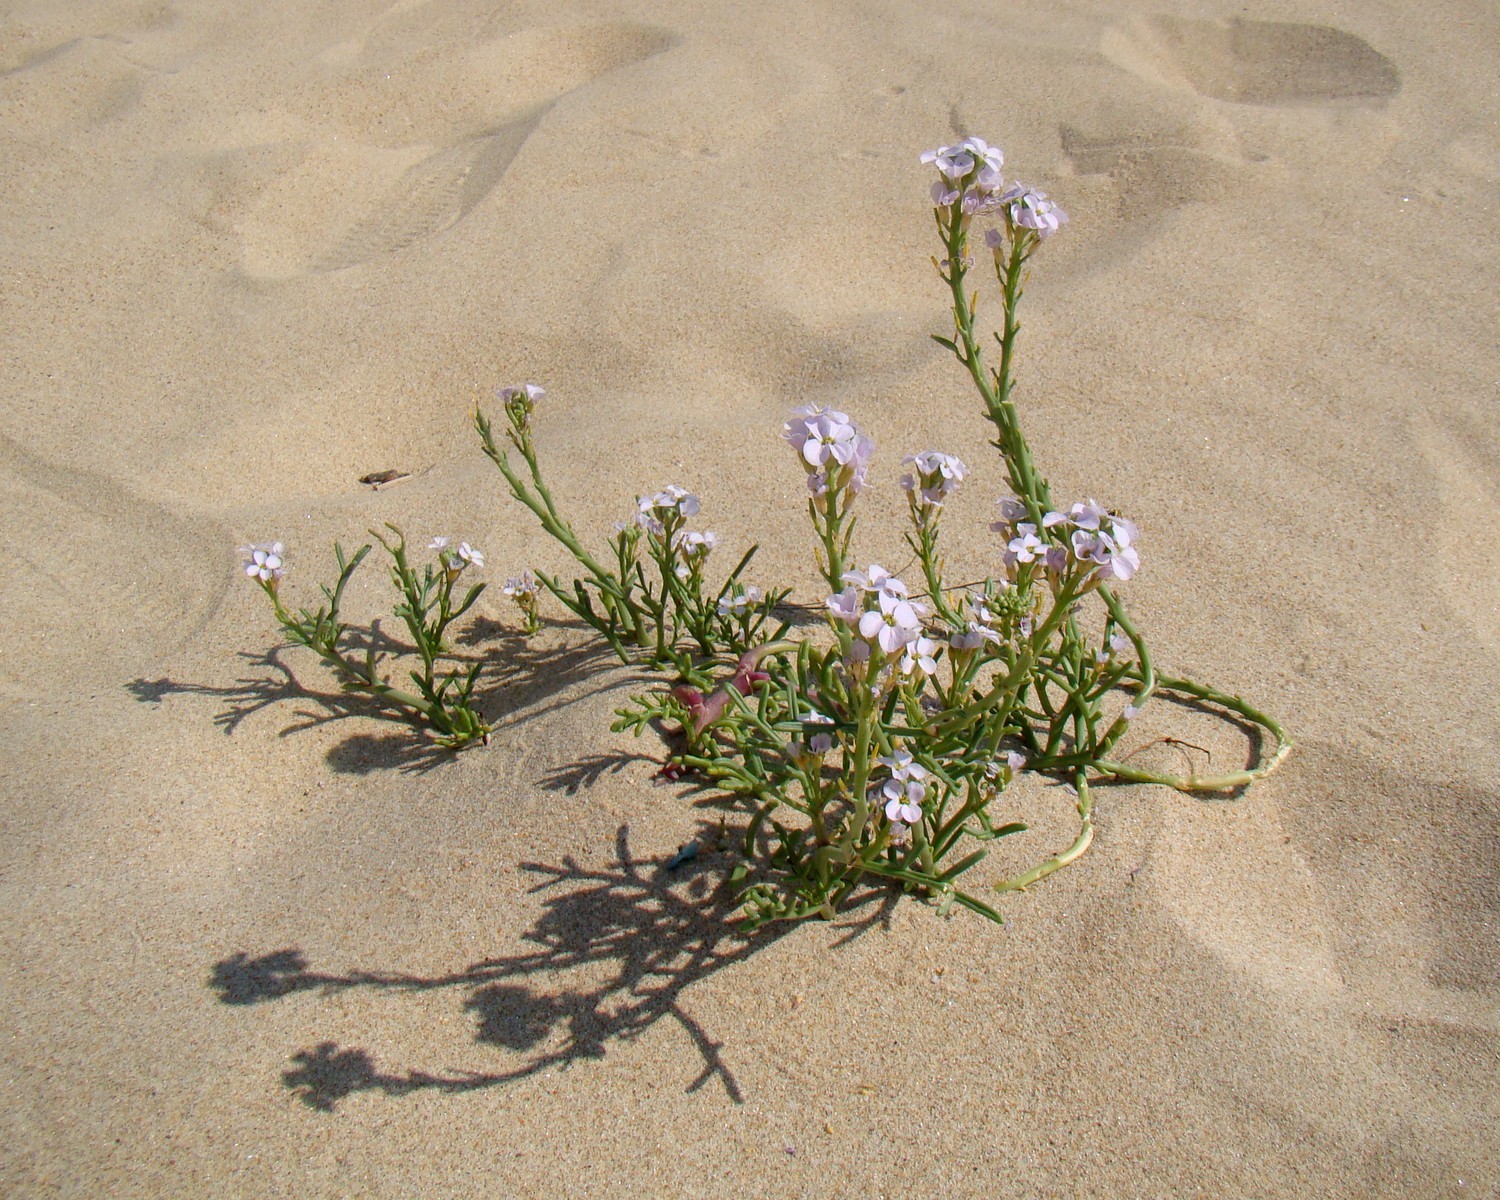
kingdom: Plantae
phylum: Tracheophyta
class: Magnoliopsida
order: Brassicales
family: Brassicaceae
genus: Cakile
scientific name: Cakile maritima
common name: Sea rocket
